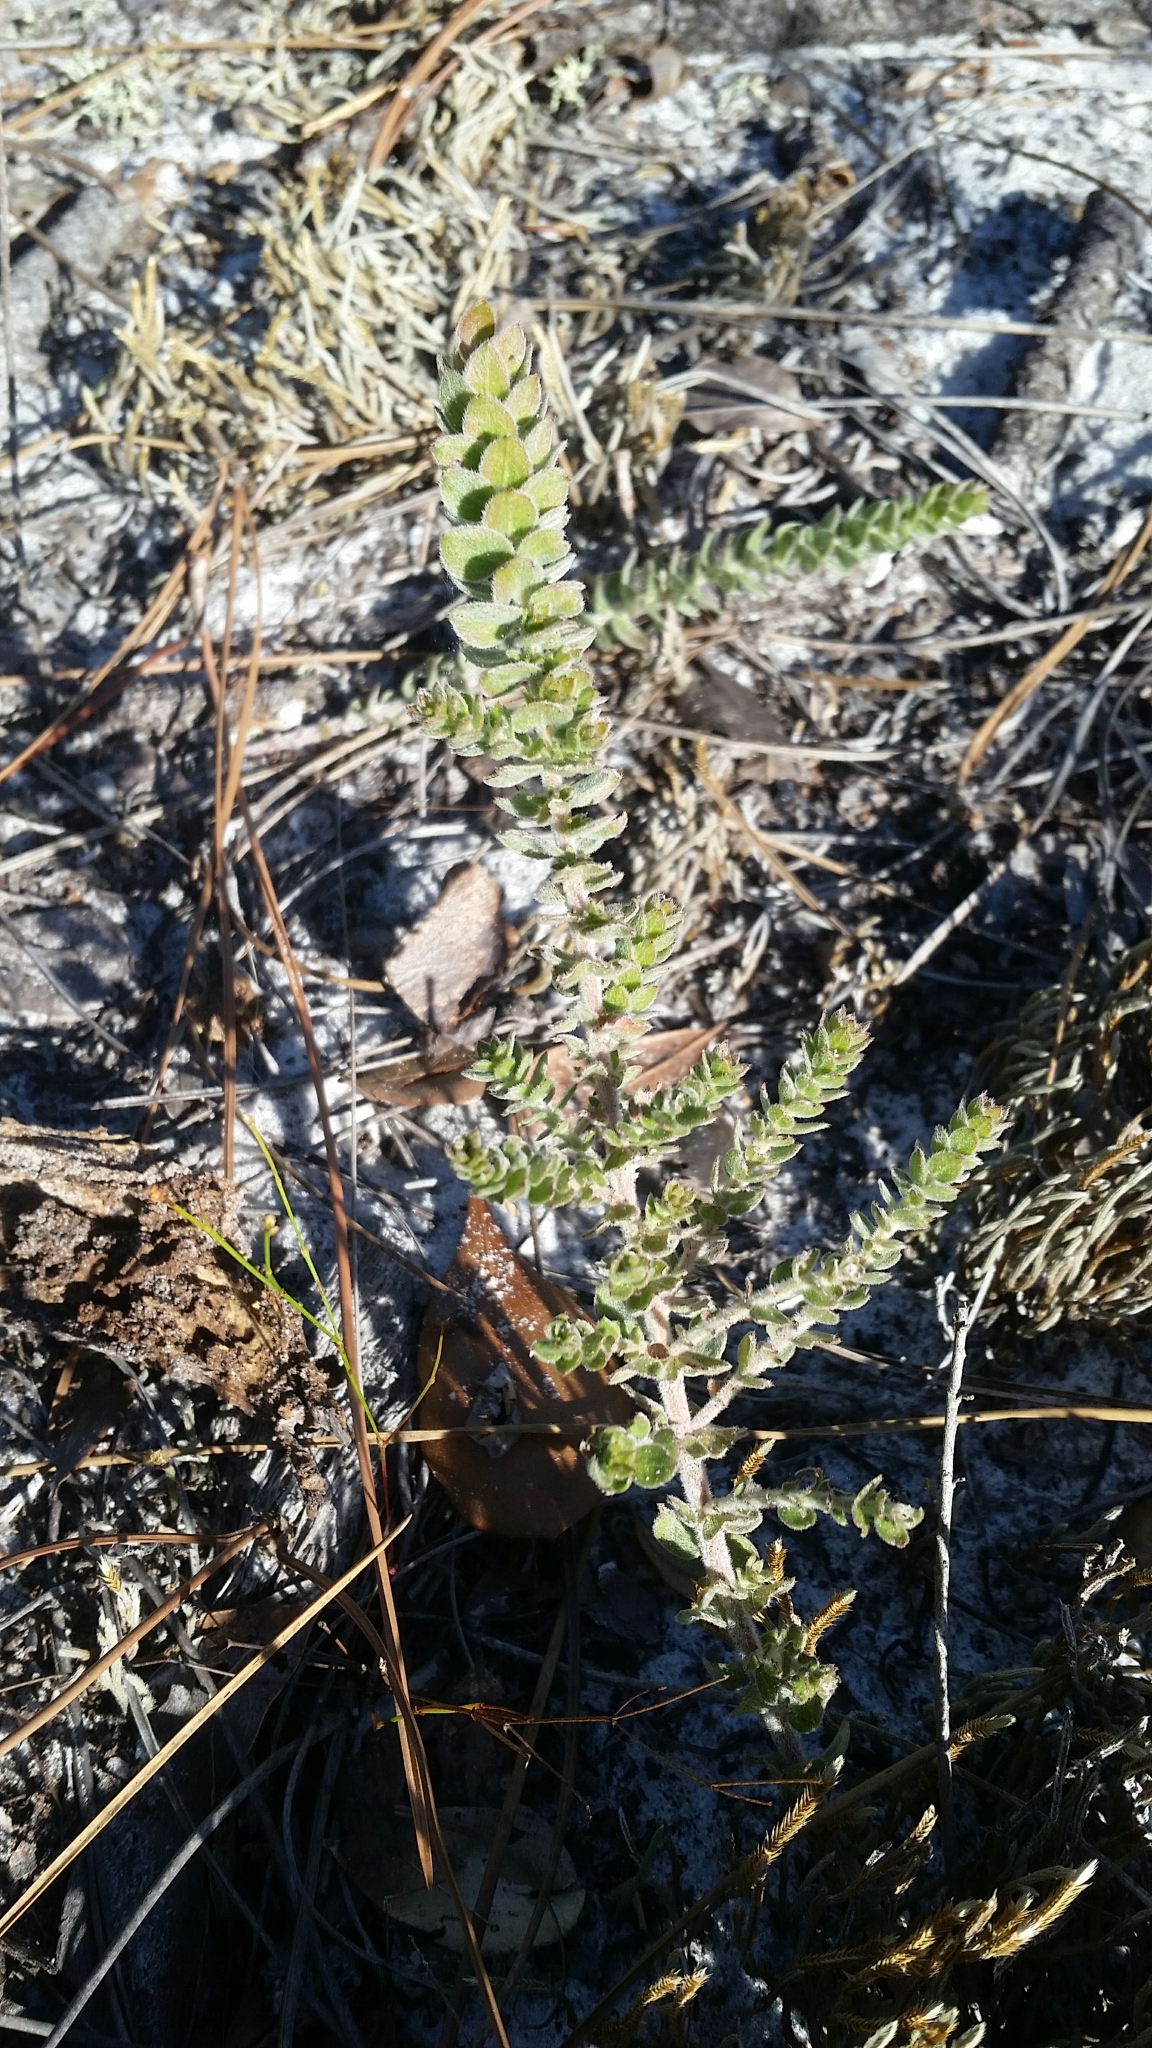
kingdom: Plantae
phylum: Tracheophyta
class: Magnoliopsida
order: Malvales
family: Cistaceae
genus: Lechea
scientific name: Lechea cernua
